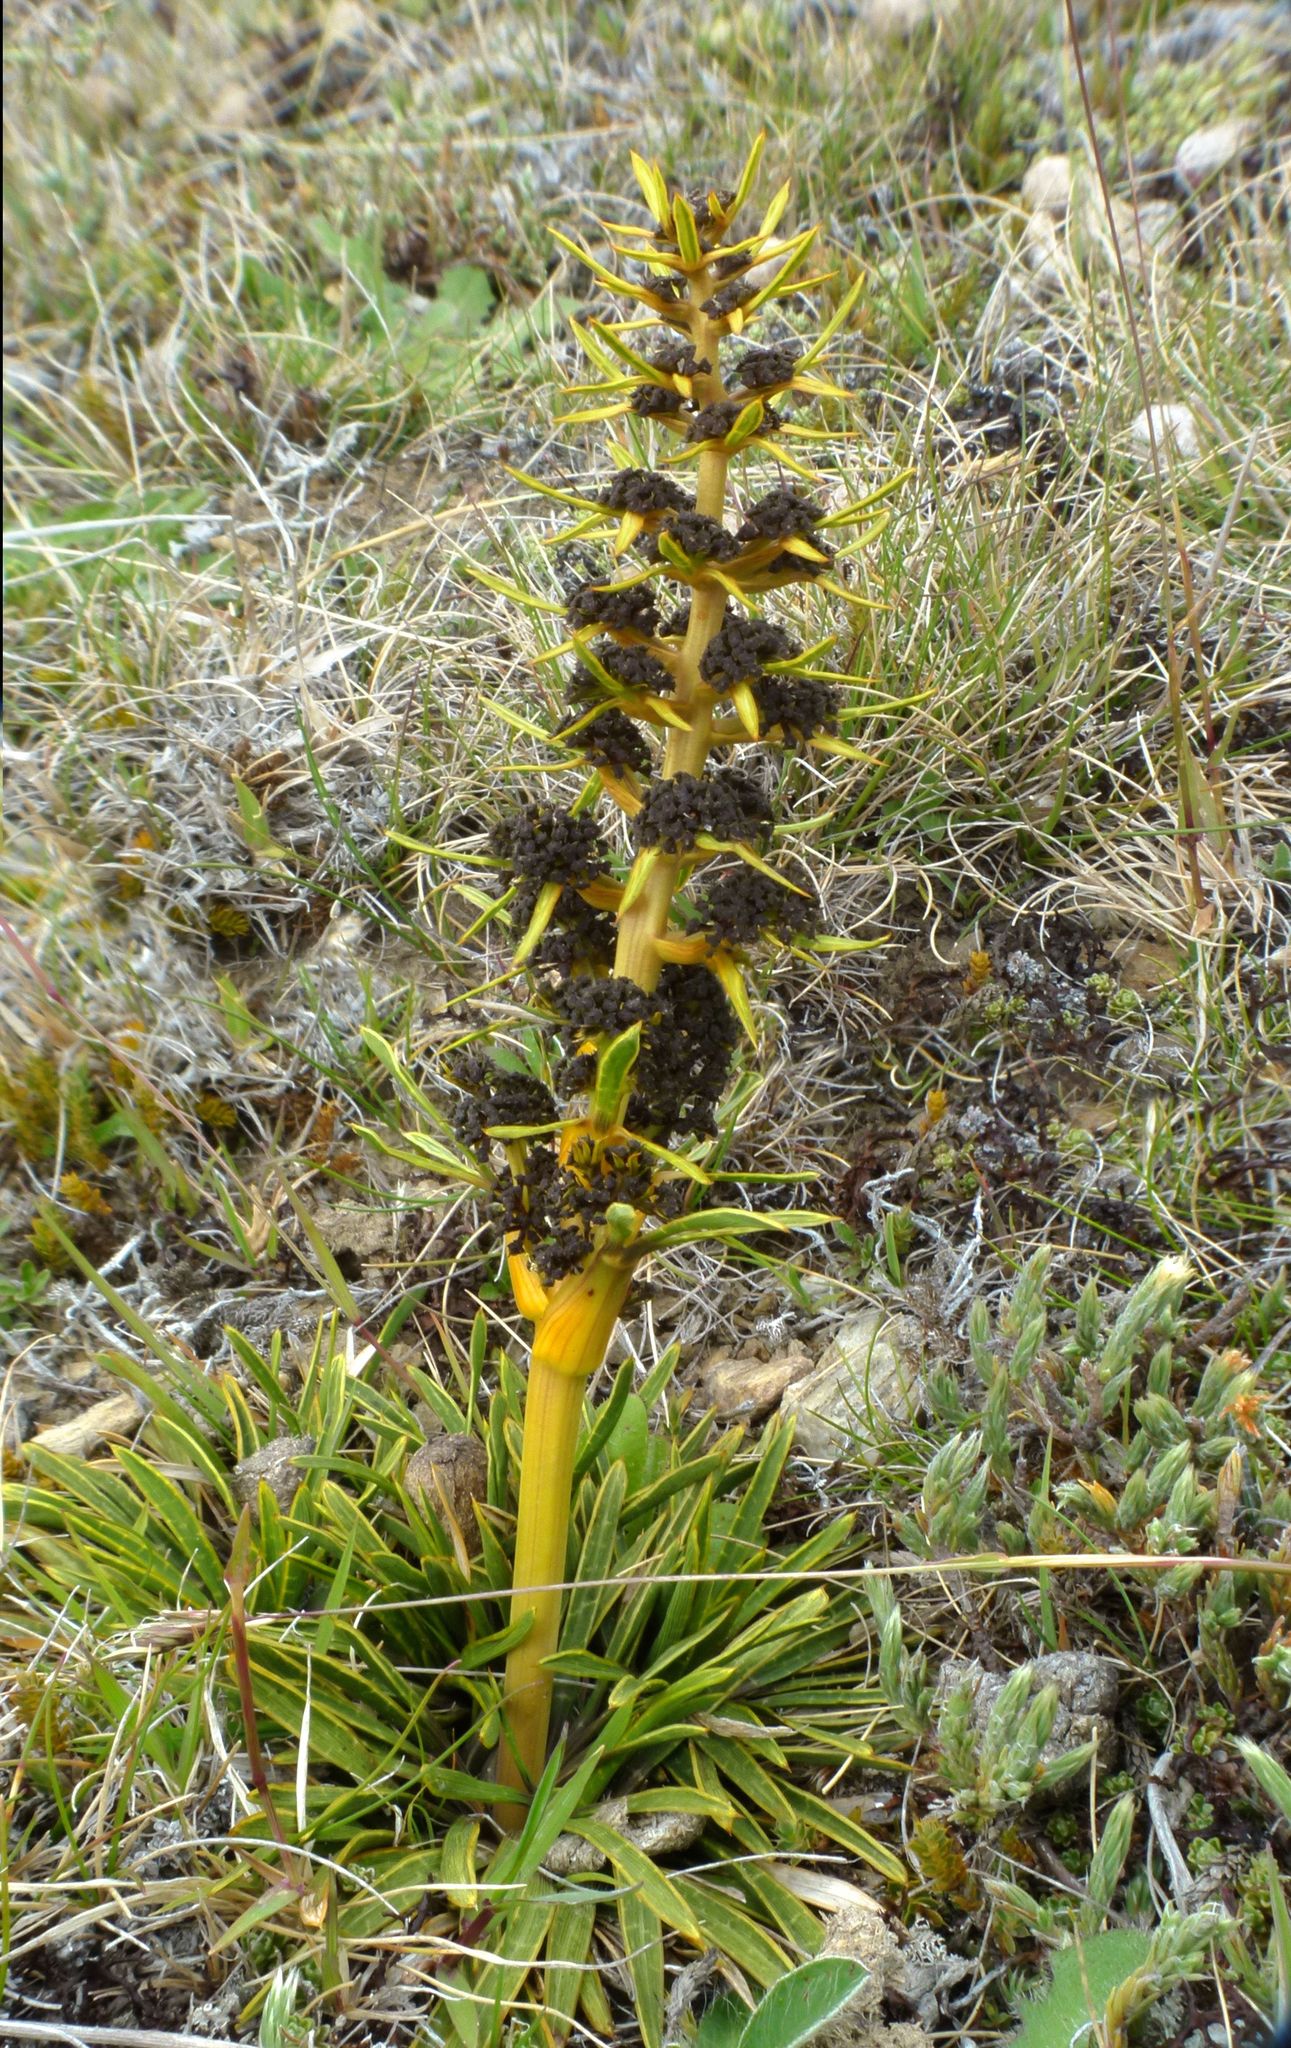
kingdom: Plantae
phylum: Tracheophyta
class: Magnoliopsida
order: Apiales
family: Apiaceae
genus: Aciphylla
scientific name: Aciphylla verticillata
